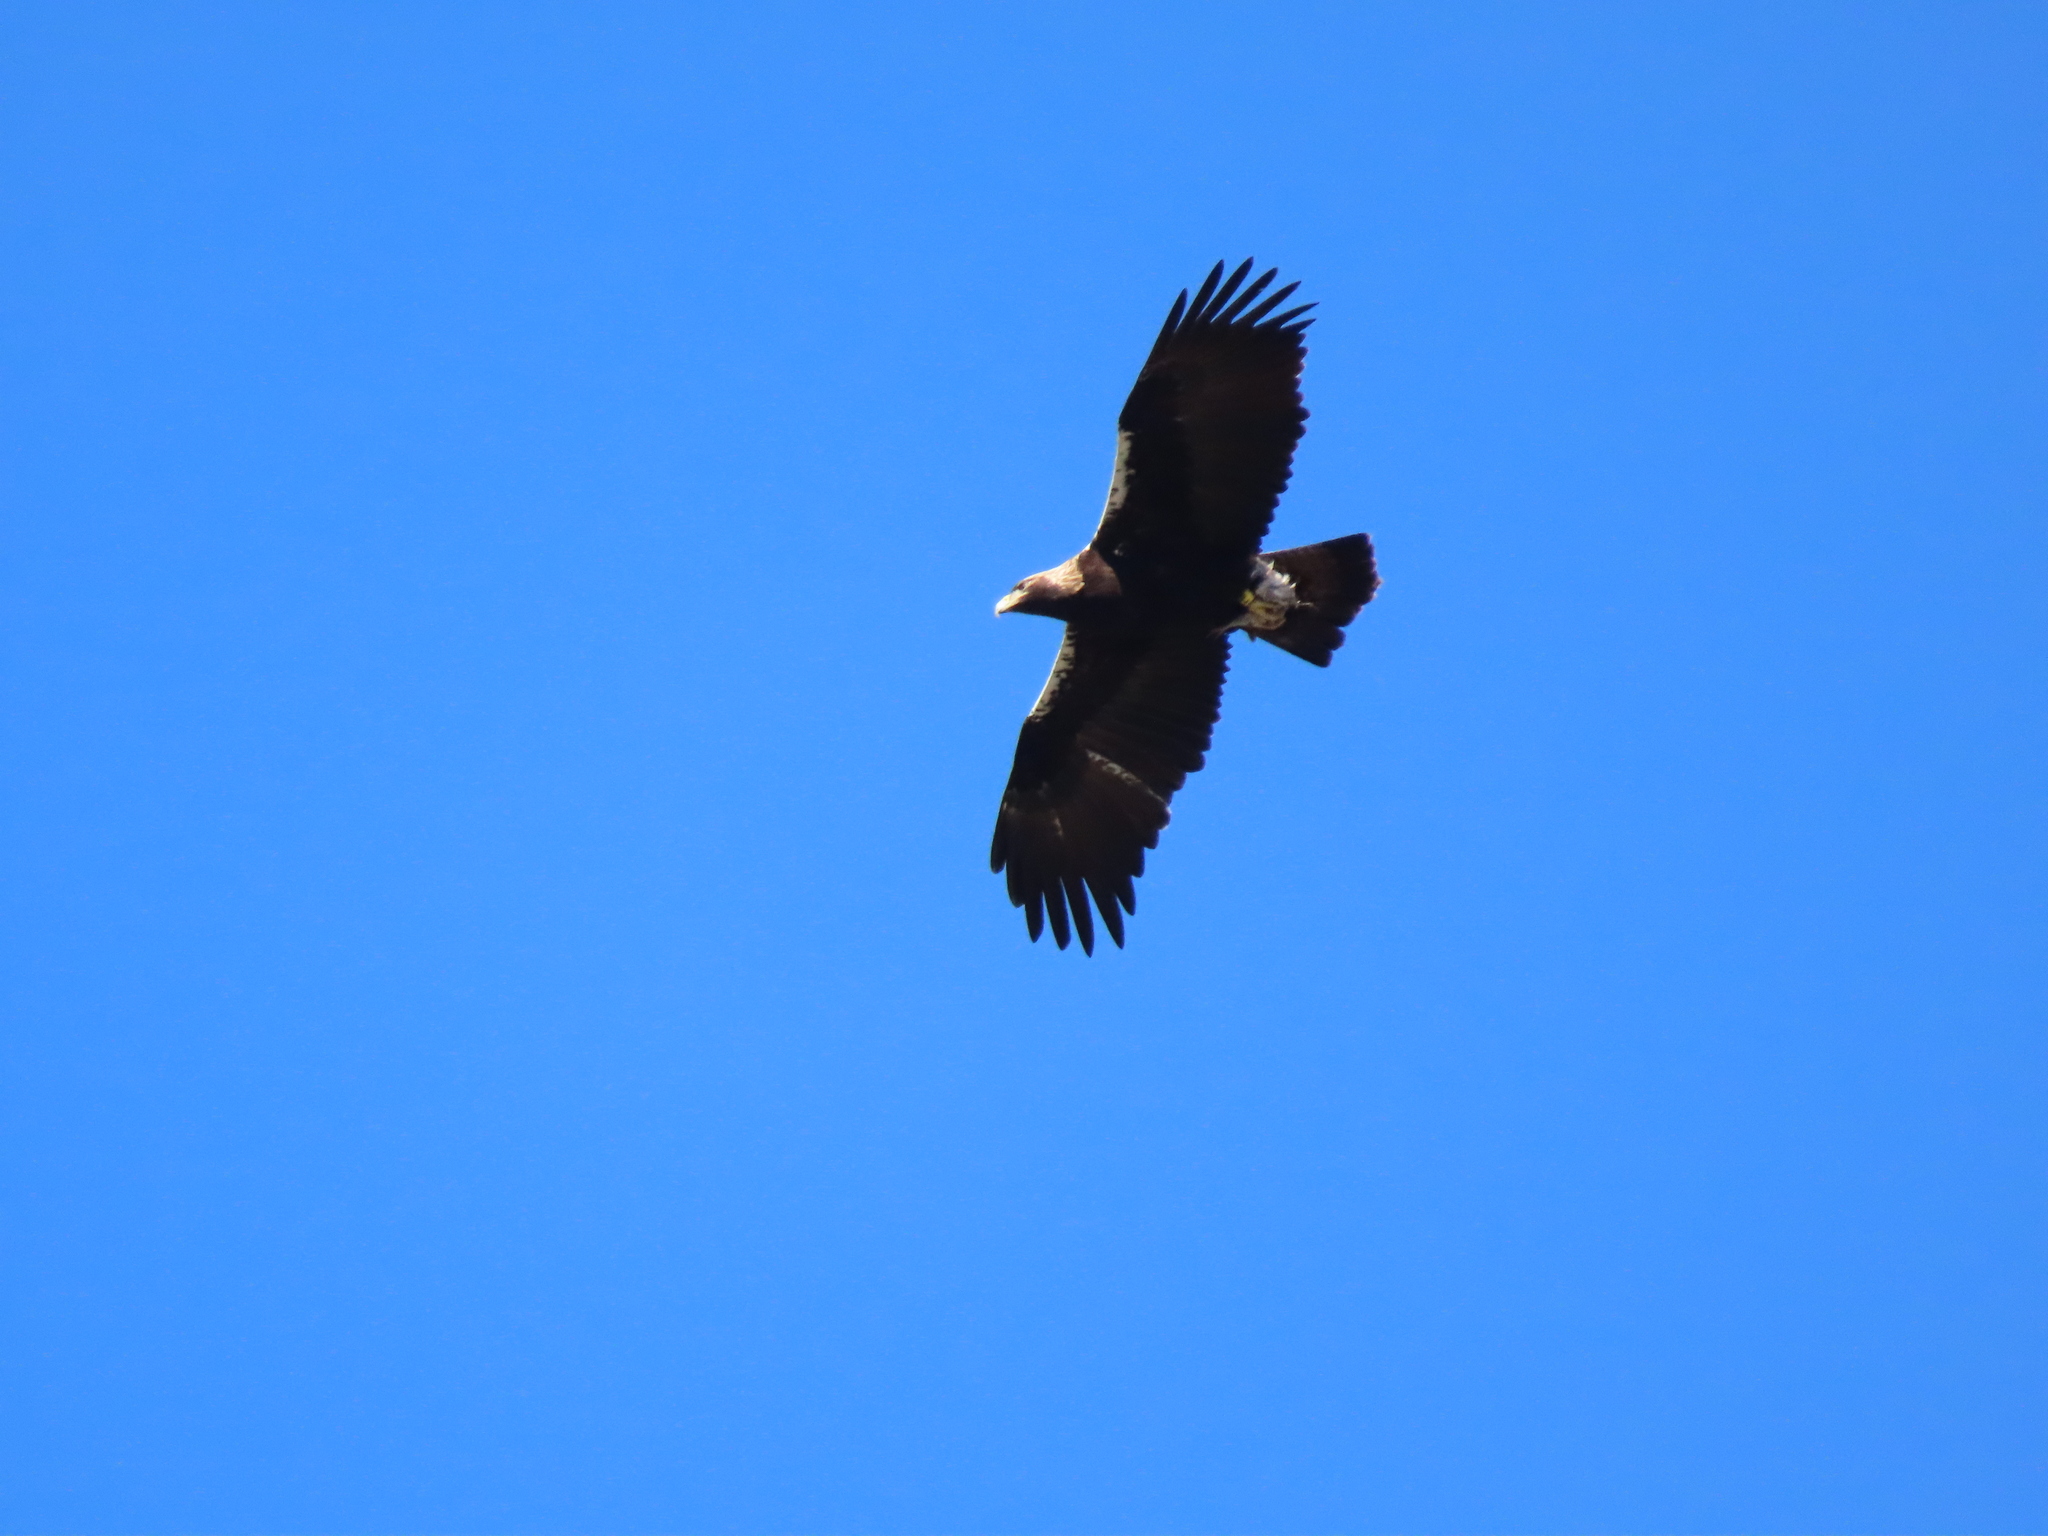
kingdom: Animalia
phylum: Chordata
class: Aves
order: Accipitriformes
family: Accipitridae
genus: Aquila
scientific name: Aquila adalberti
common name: Spanish imperial eagle
